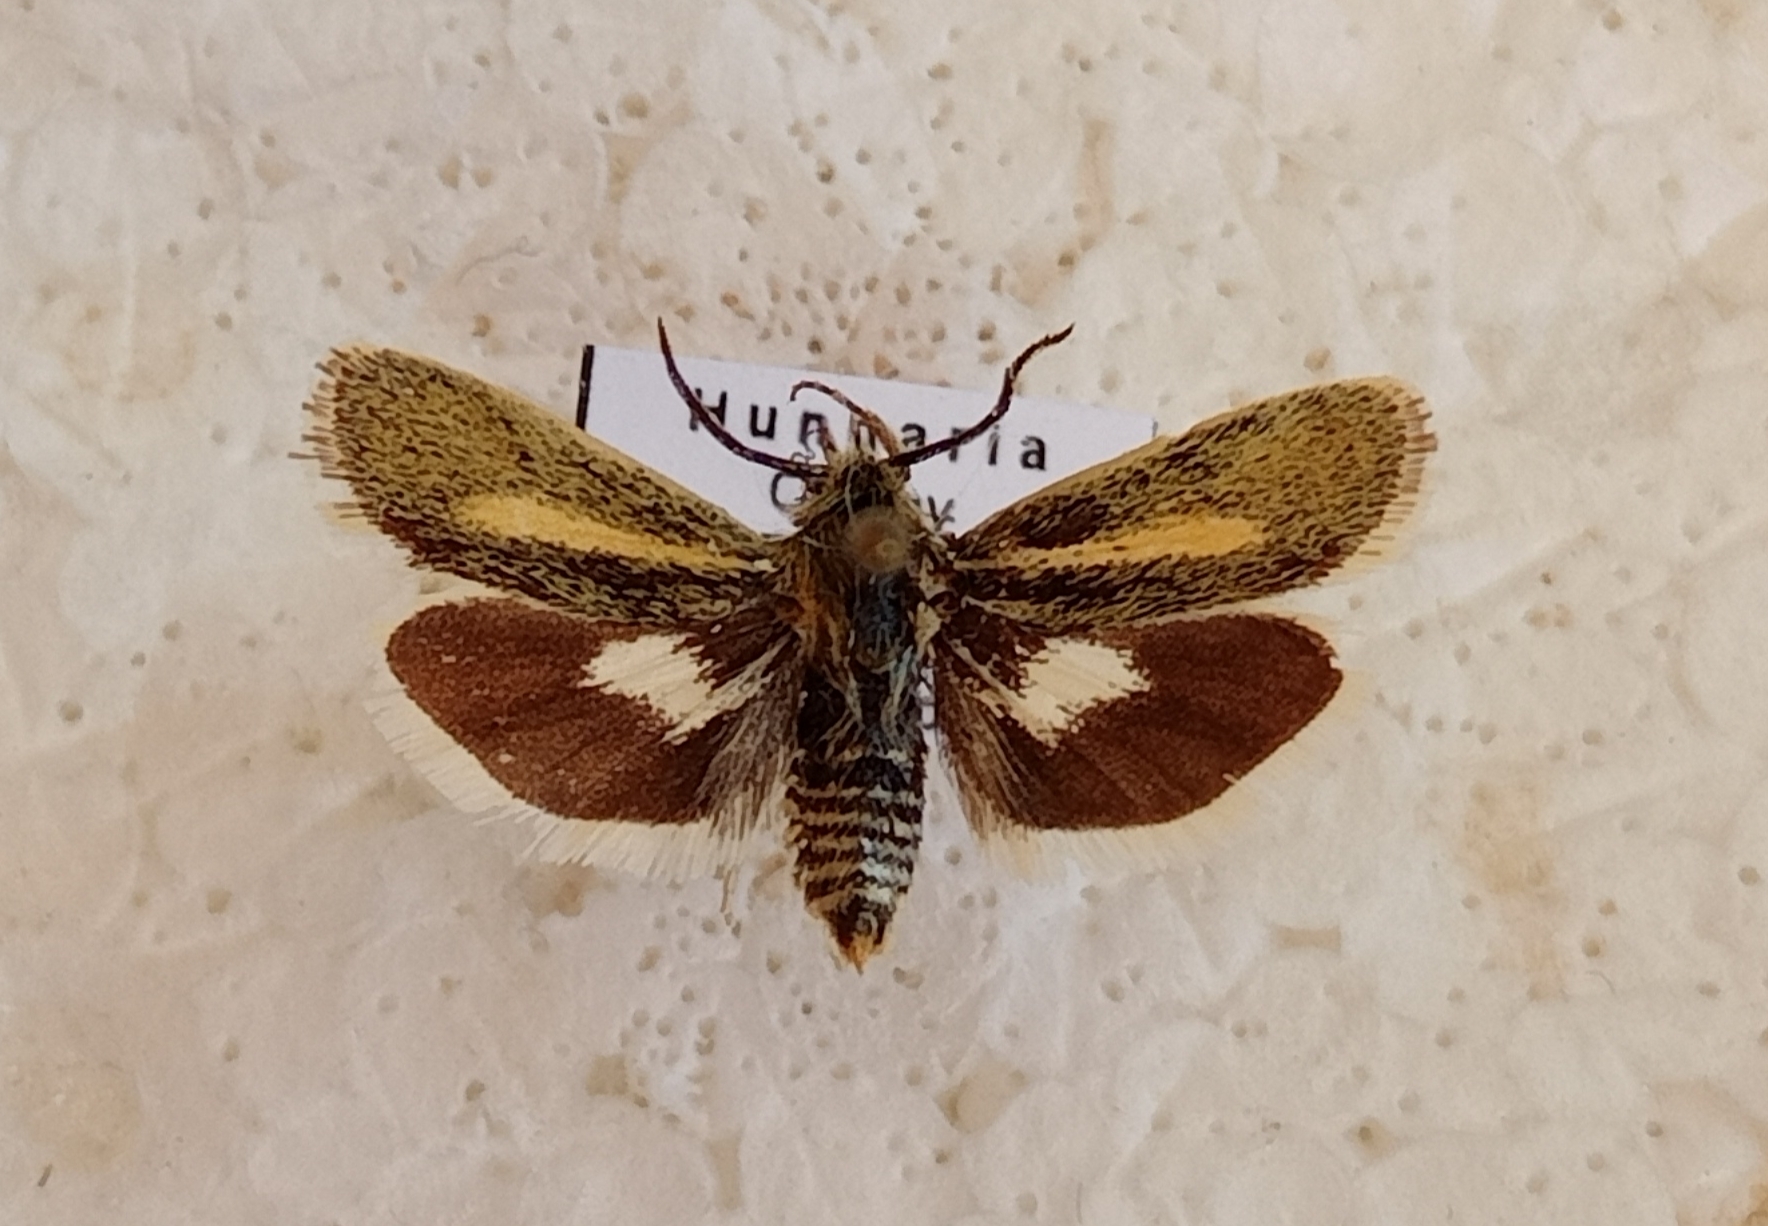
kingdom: Animalia
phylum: Arthropoda
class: Insecta
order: Lepidoptera
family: Brachodidae
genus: Atychia
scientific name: Atychia appendiculata
